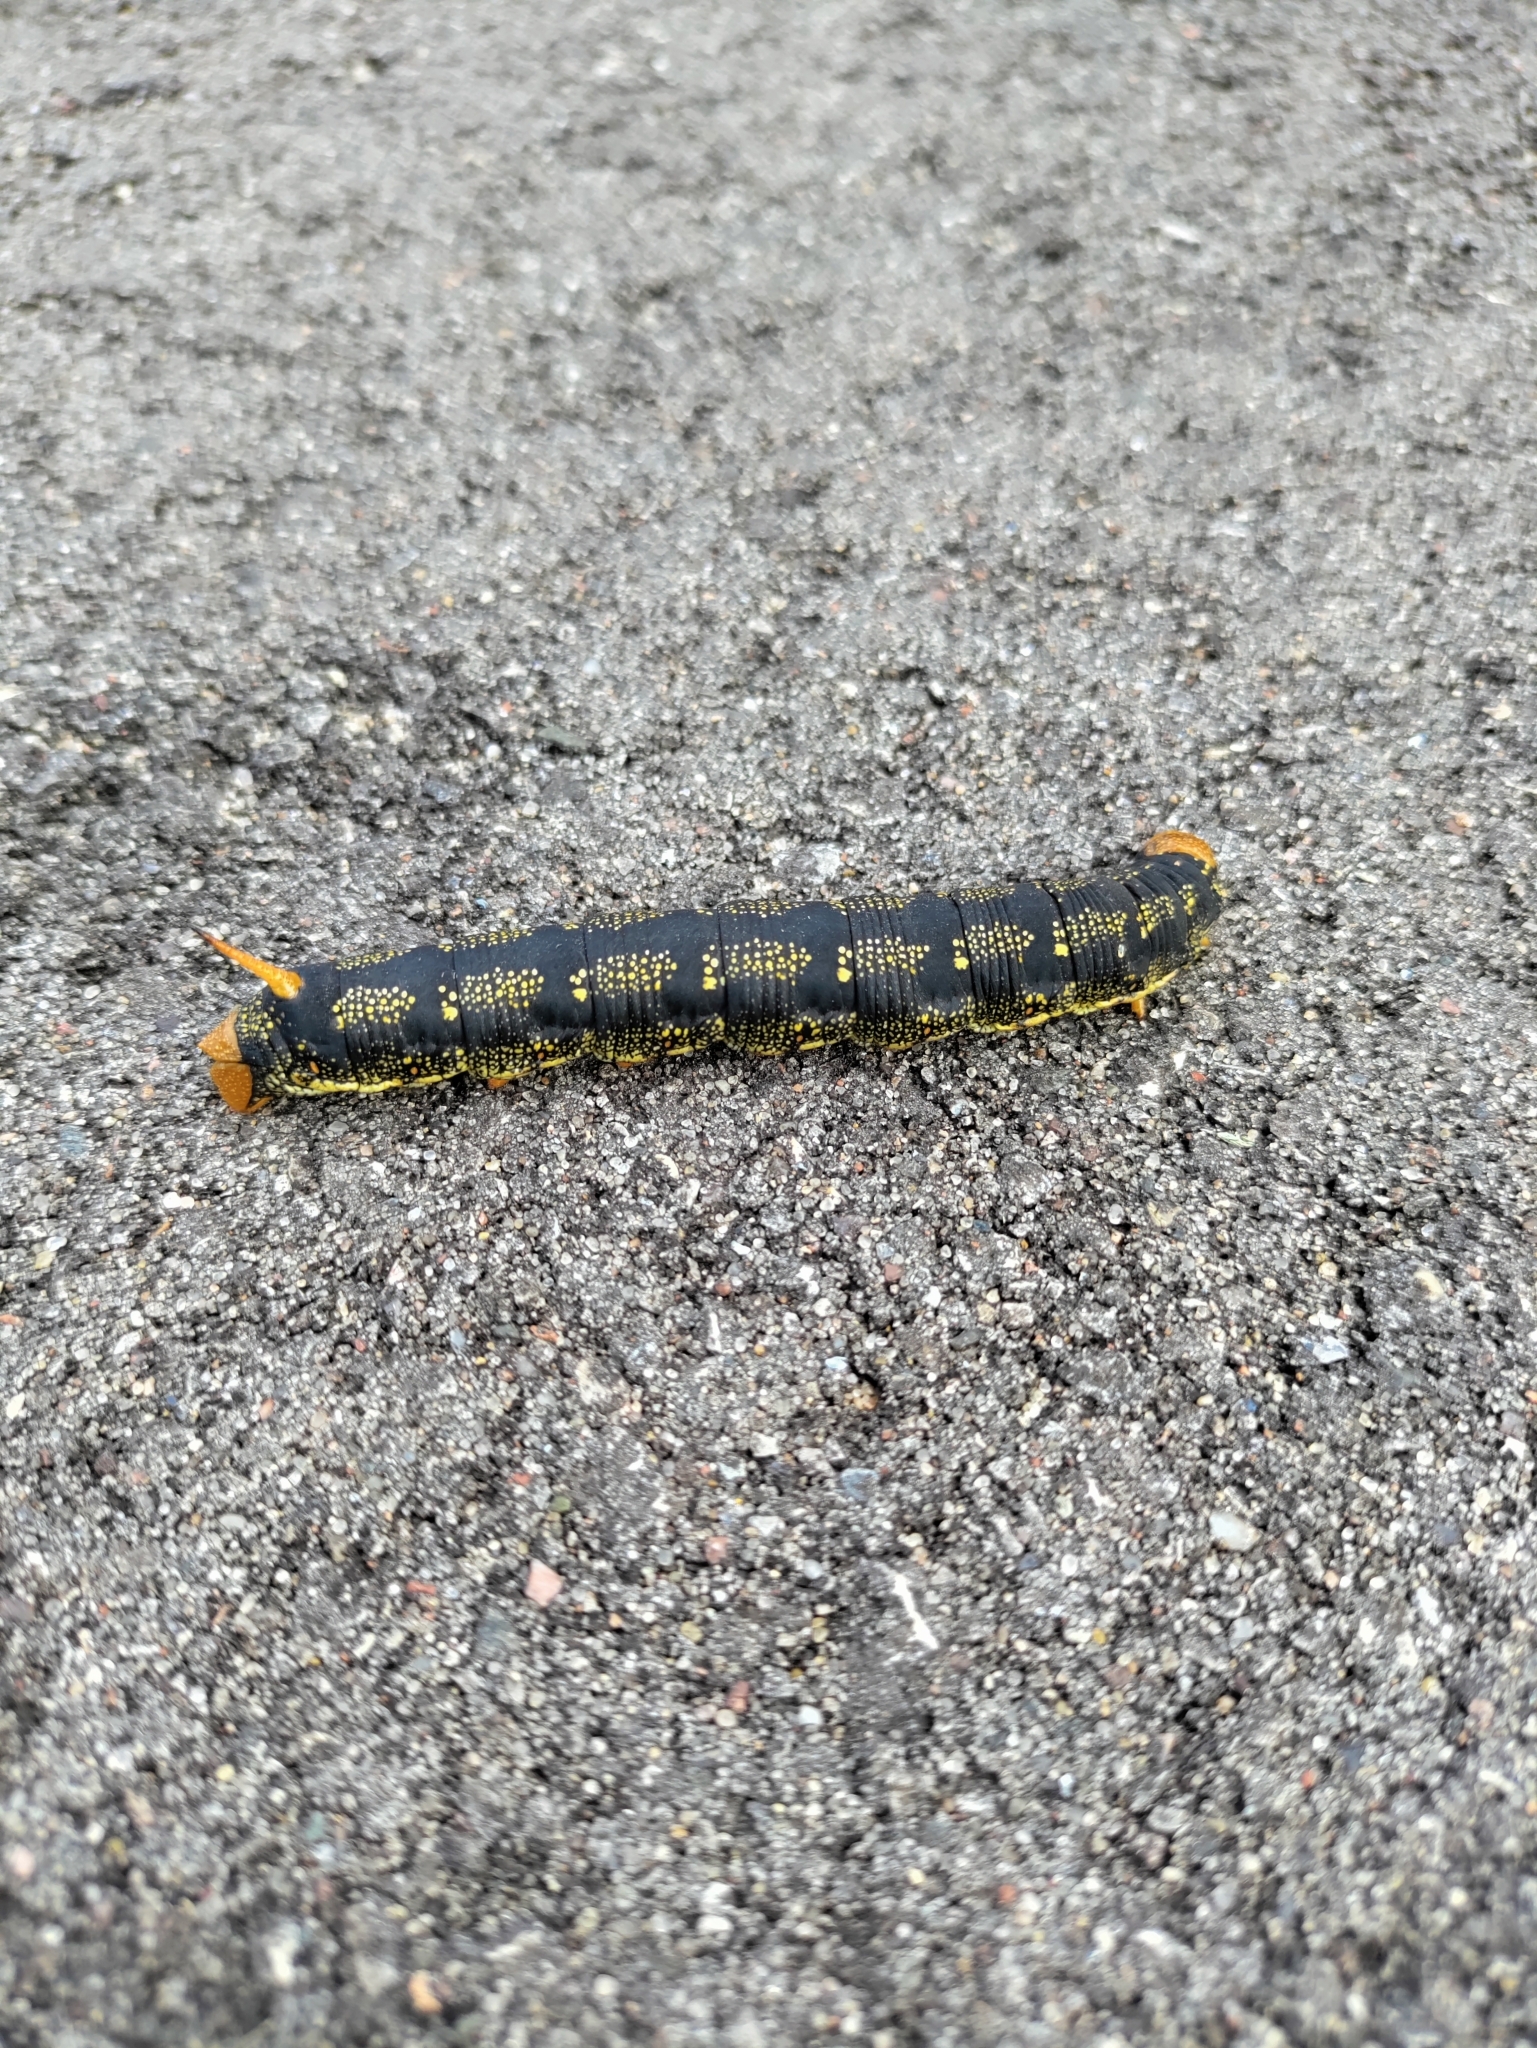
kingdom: Animalia
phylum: Arthropoda
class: Insecta
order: Lepidoptera
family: Sphingidae
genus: Hyles
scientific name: Hyles lineata
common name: White-lined sphinx
